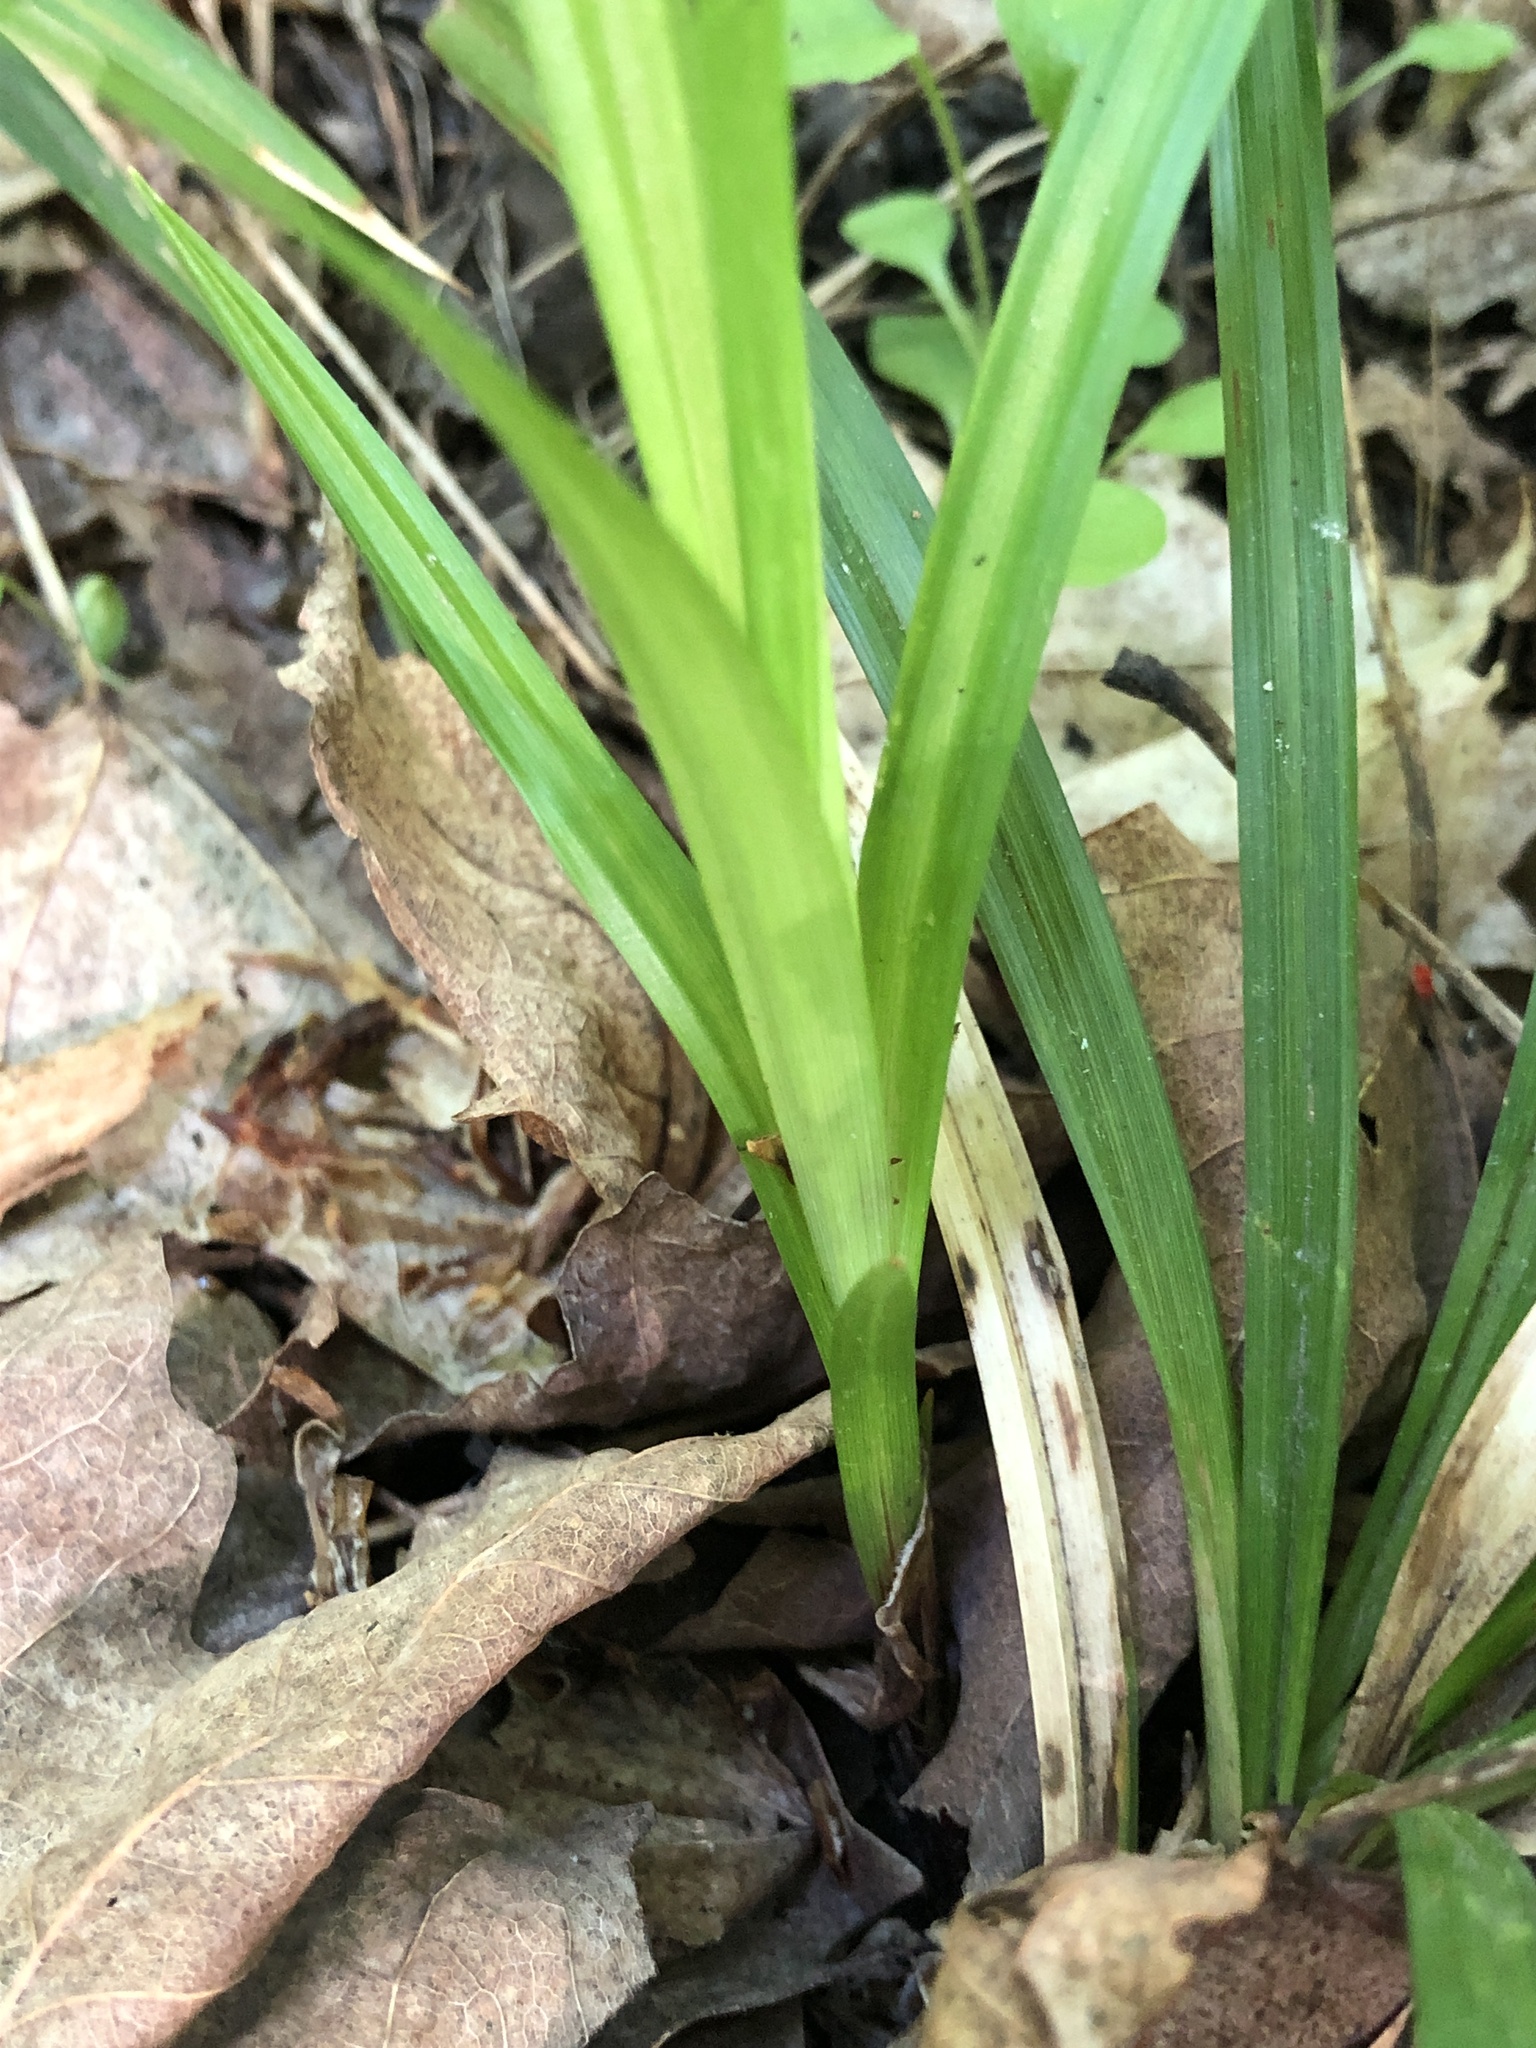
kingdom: Plantae
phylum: Tracheophyta
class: Liliopsida
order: Poales
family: Cyperaceae
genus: Carex
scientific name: Carex arctata
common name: Black sedge
